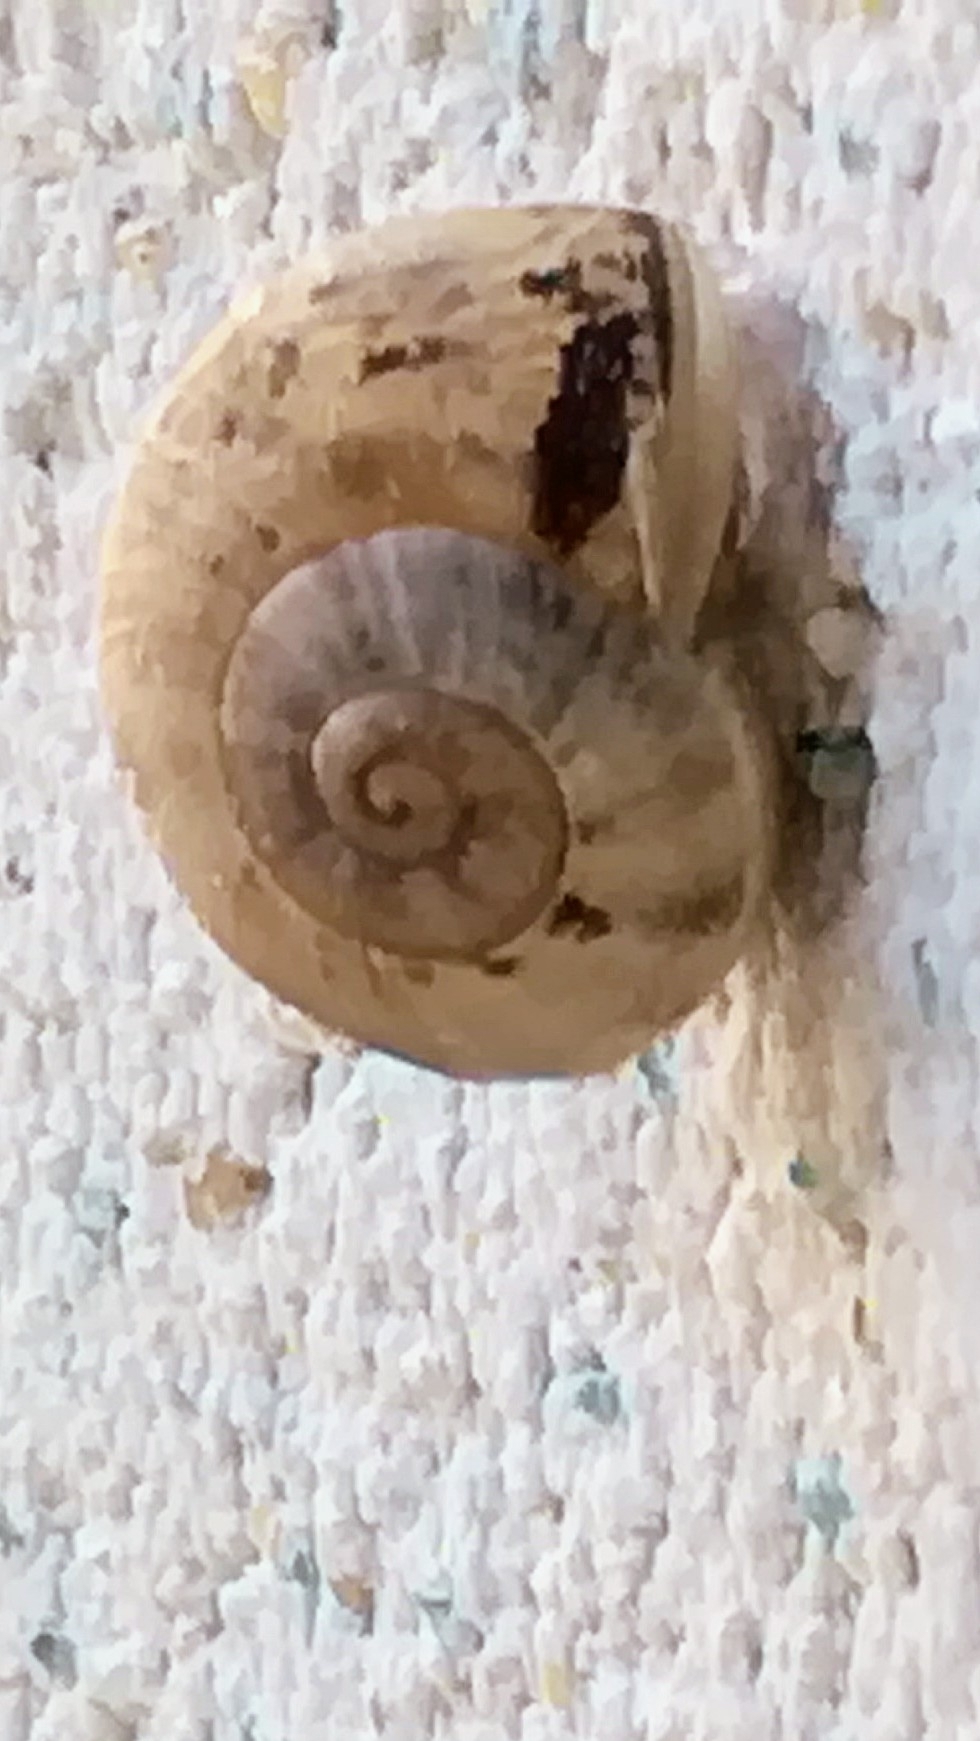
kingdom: Animalia
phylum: Mollusca
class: Gastropoda
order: Stylommatophora
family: Helicidae
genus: Eobania
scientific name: Eobania vermiculata
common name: Chocolateband snail
